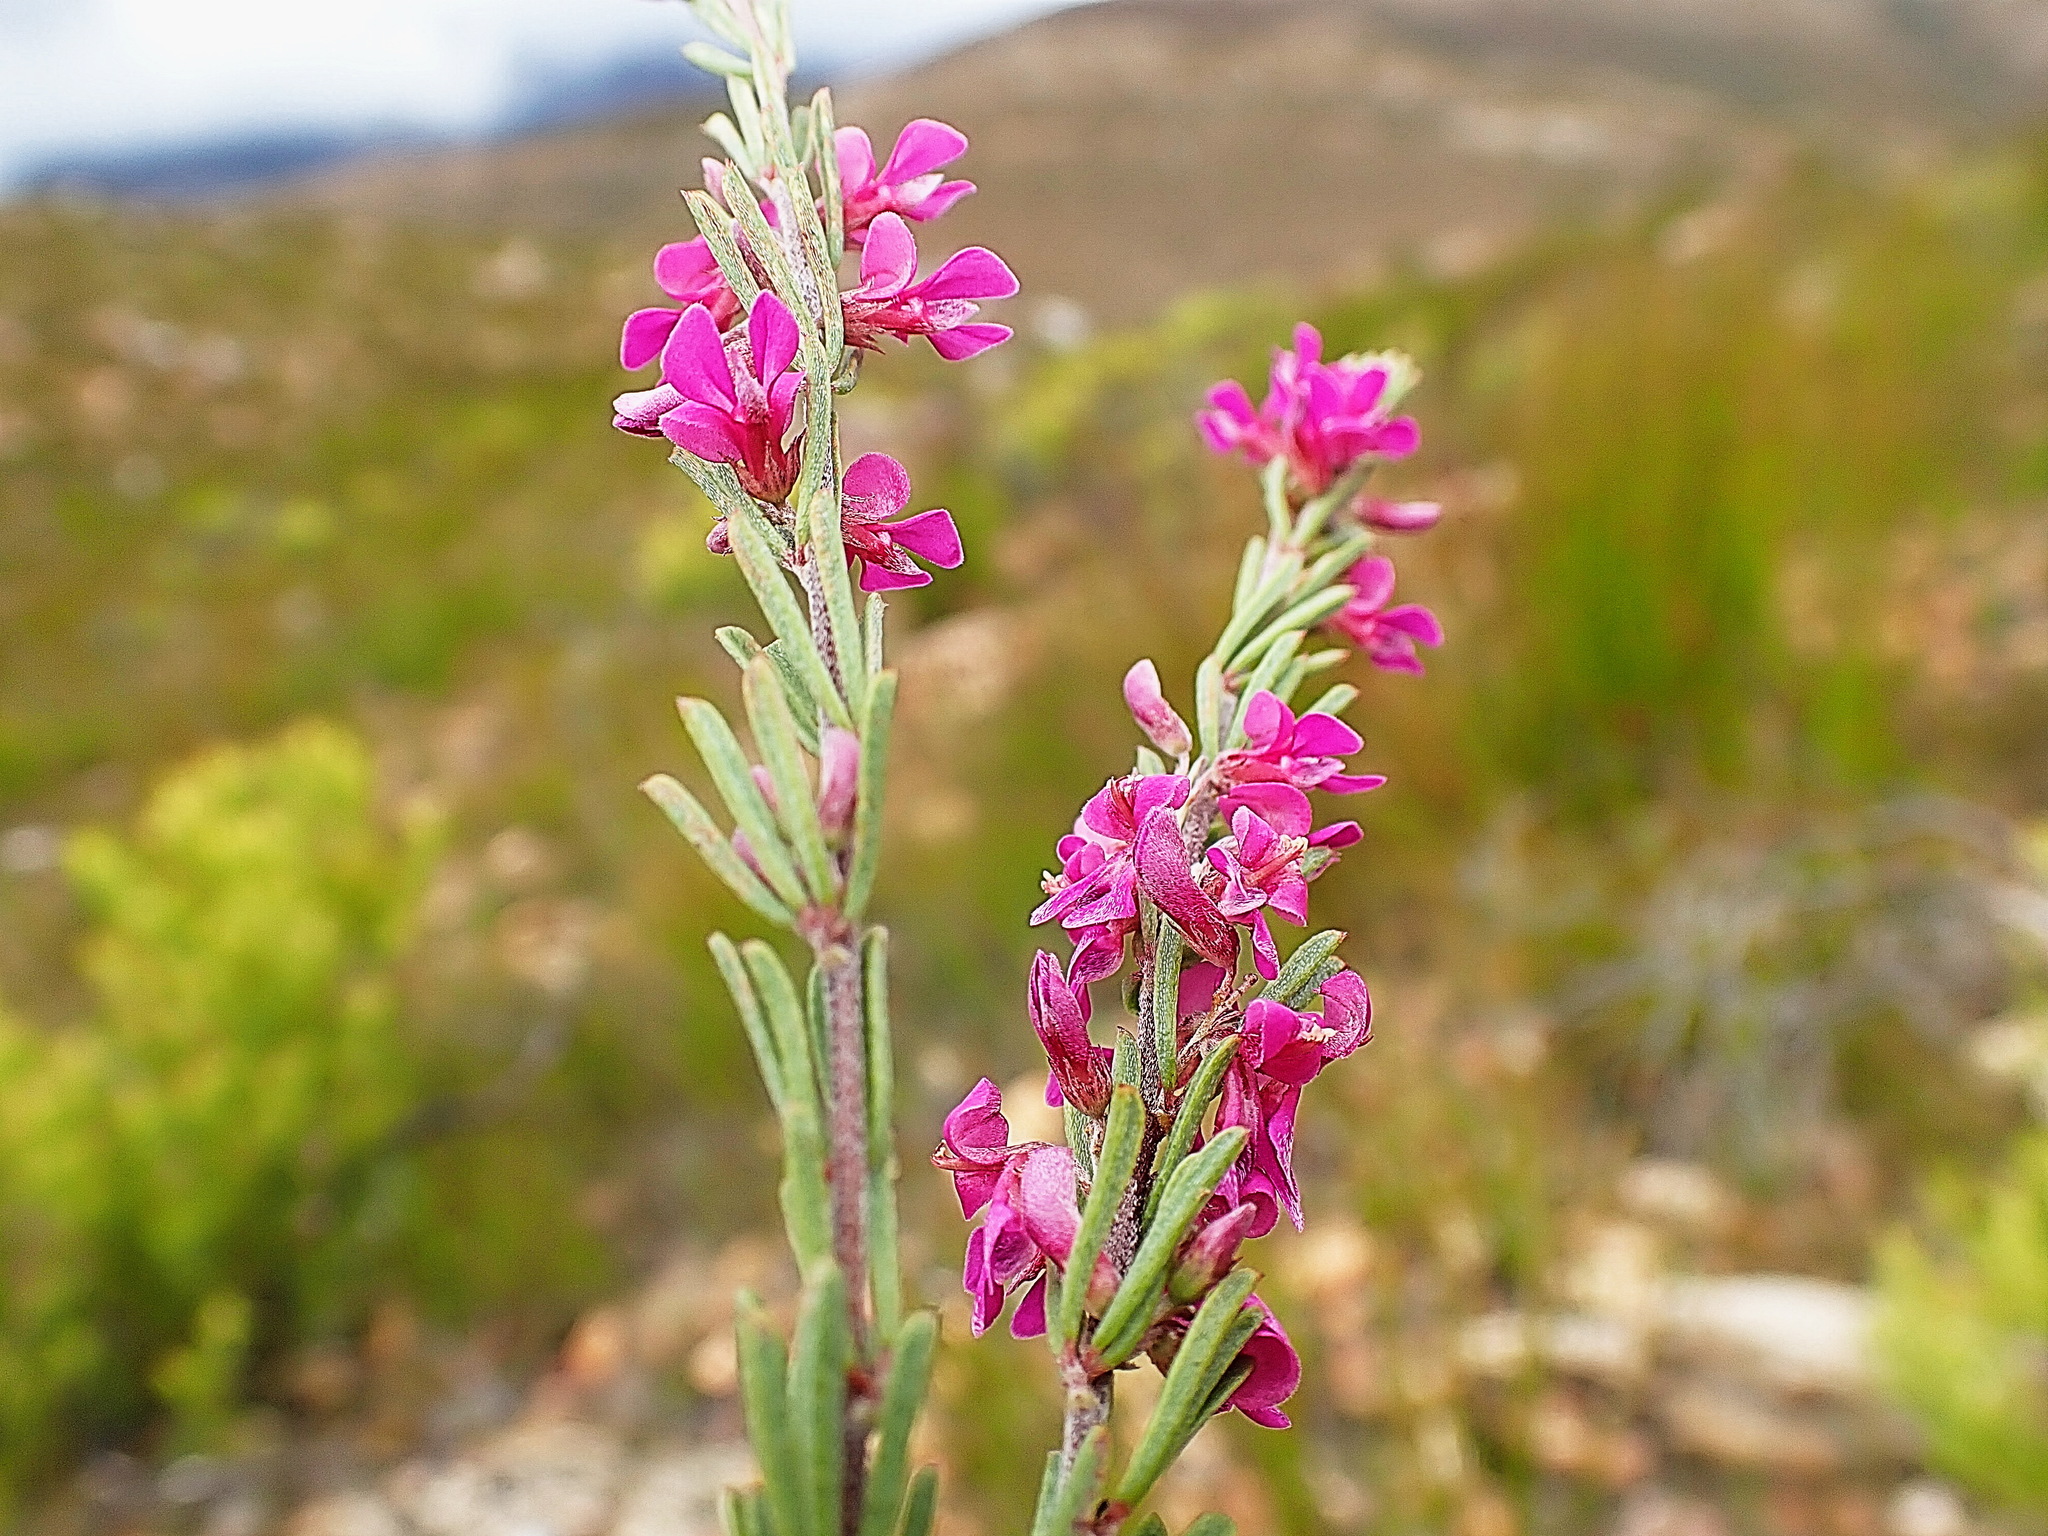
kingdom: Plantae
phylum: Tracheophyta
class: Magnoliopsida
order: Fabales
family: Fabaceae
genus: Indigofera
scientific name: Indigofera pappei
